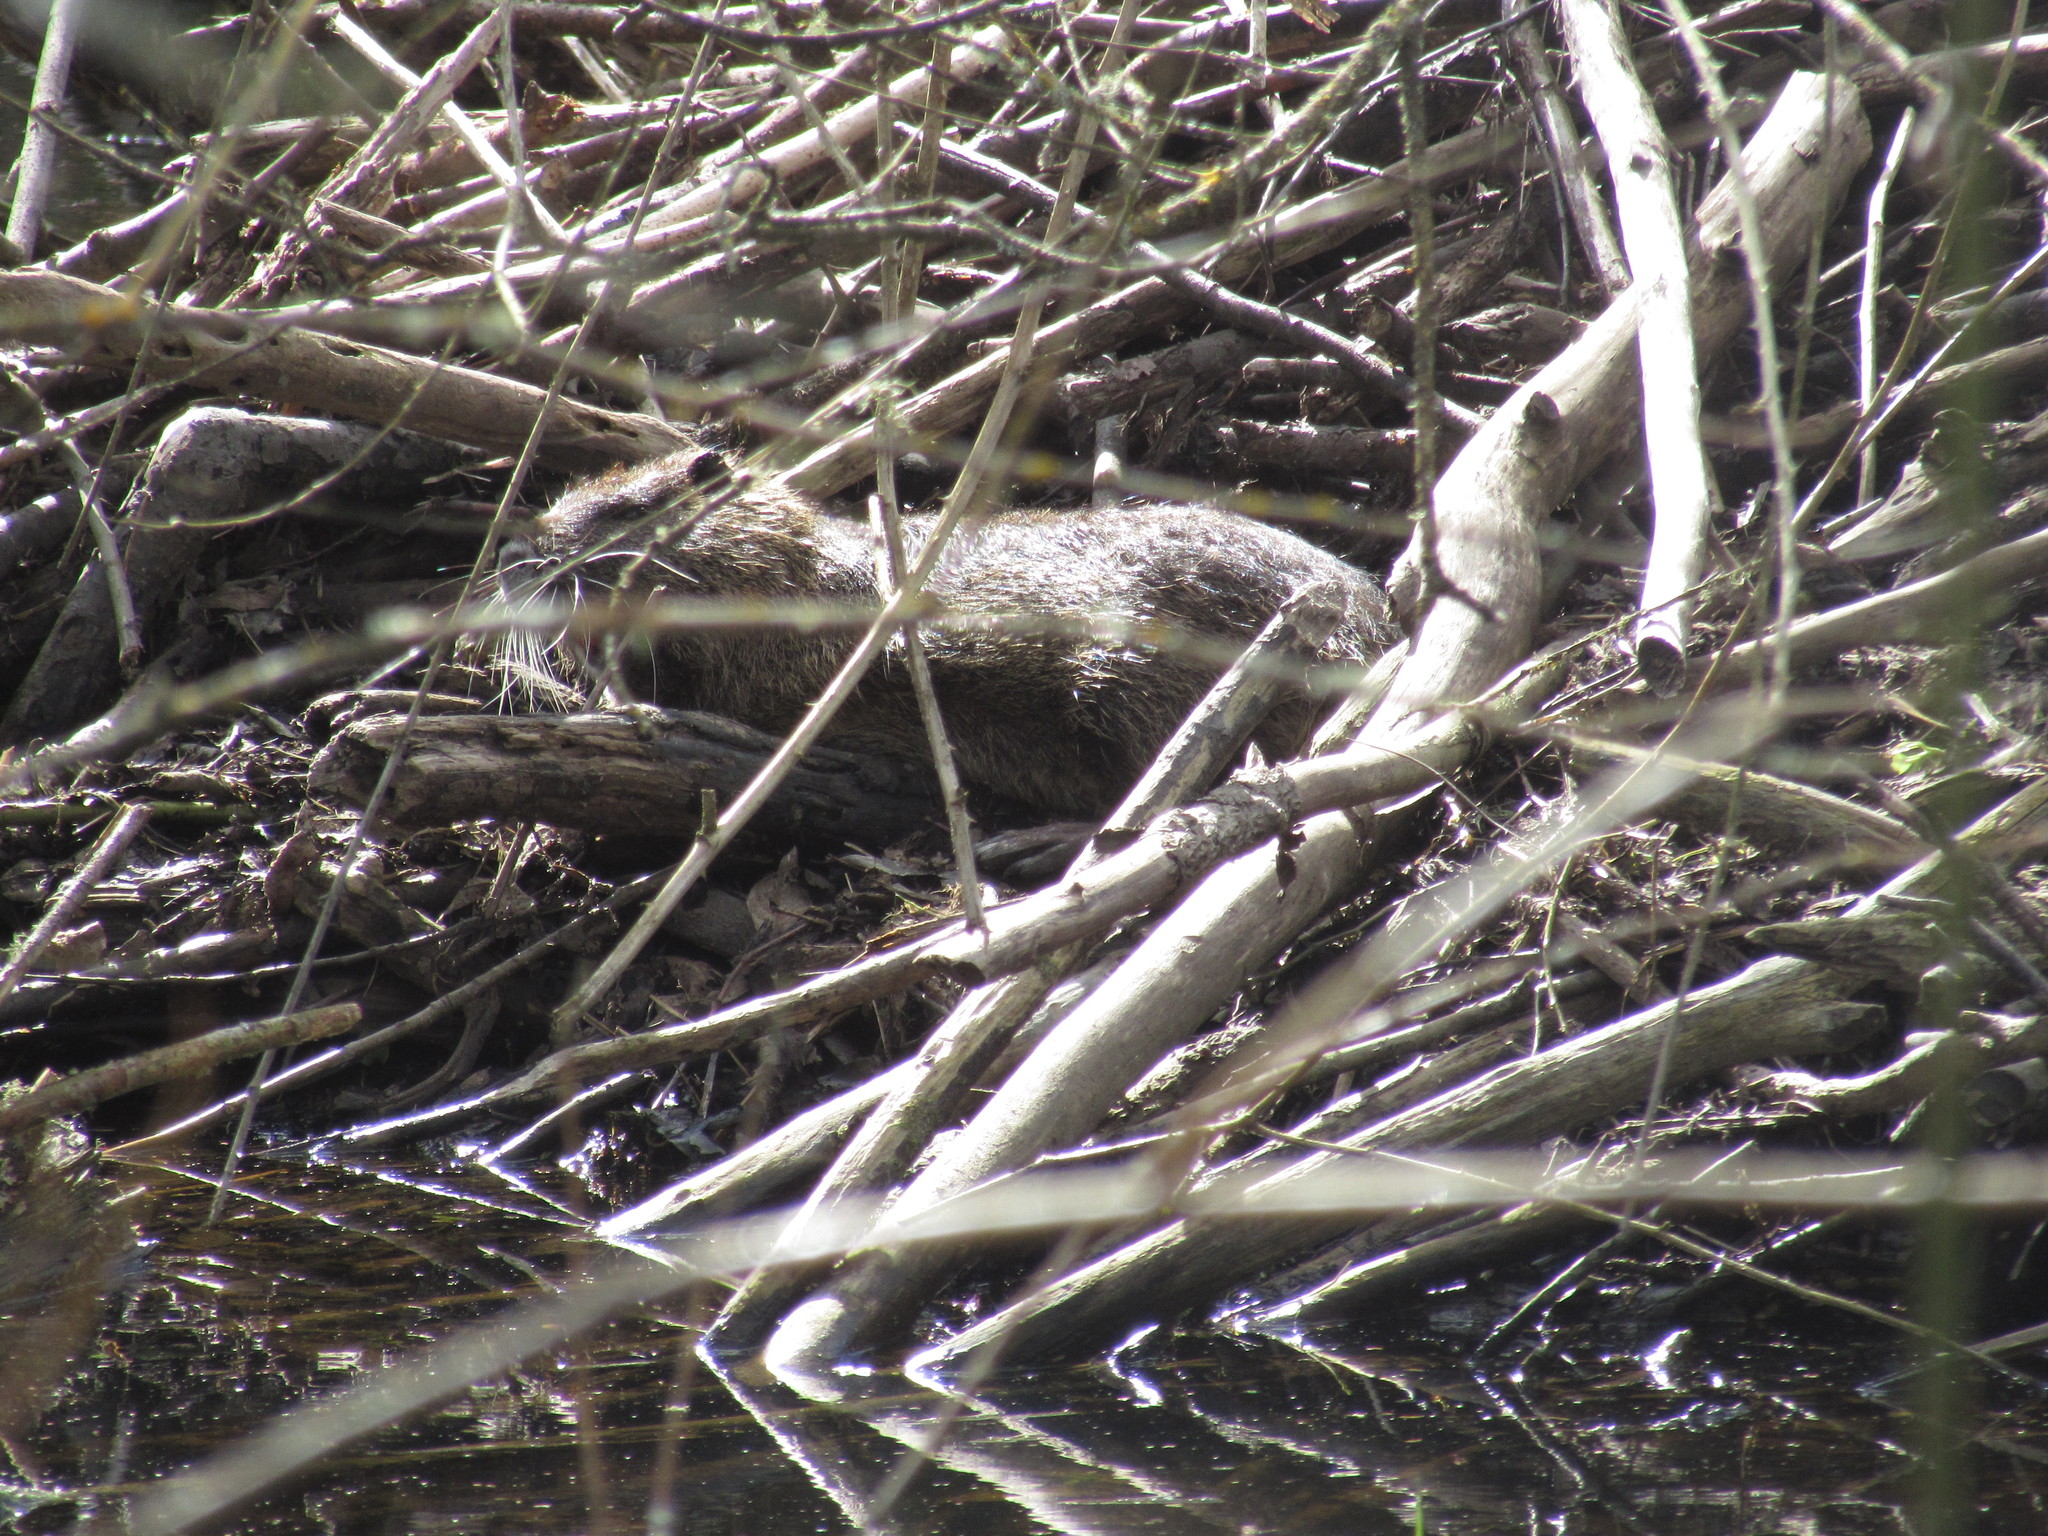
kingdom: Animalia
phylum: Chordata
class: Mammalia
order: Rodentia
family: Myocastoridae
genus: Myocastor
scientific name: Myocastor coypus
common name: Coypu
